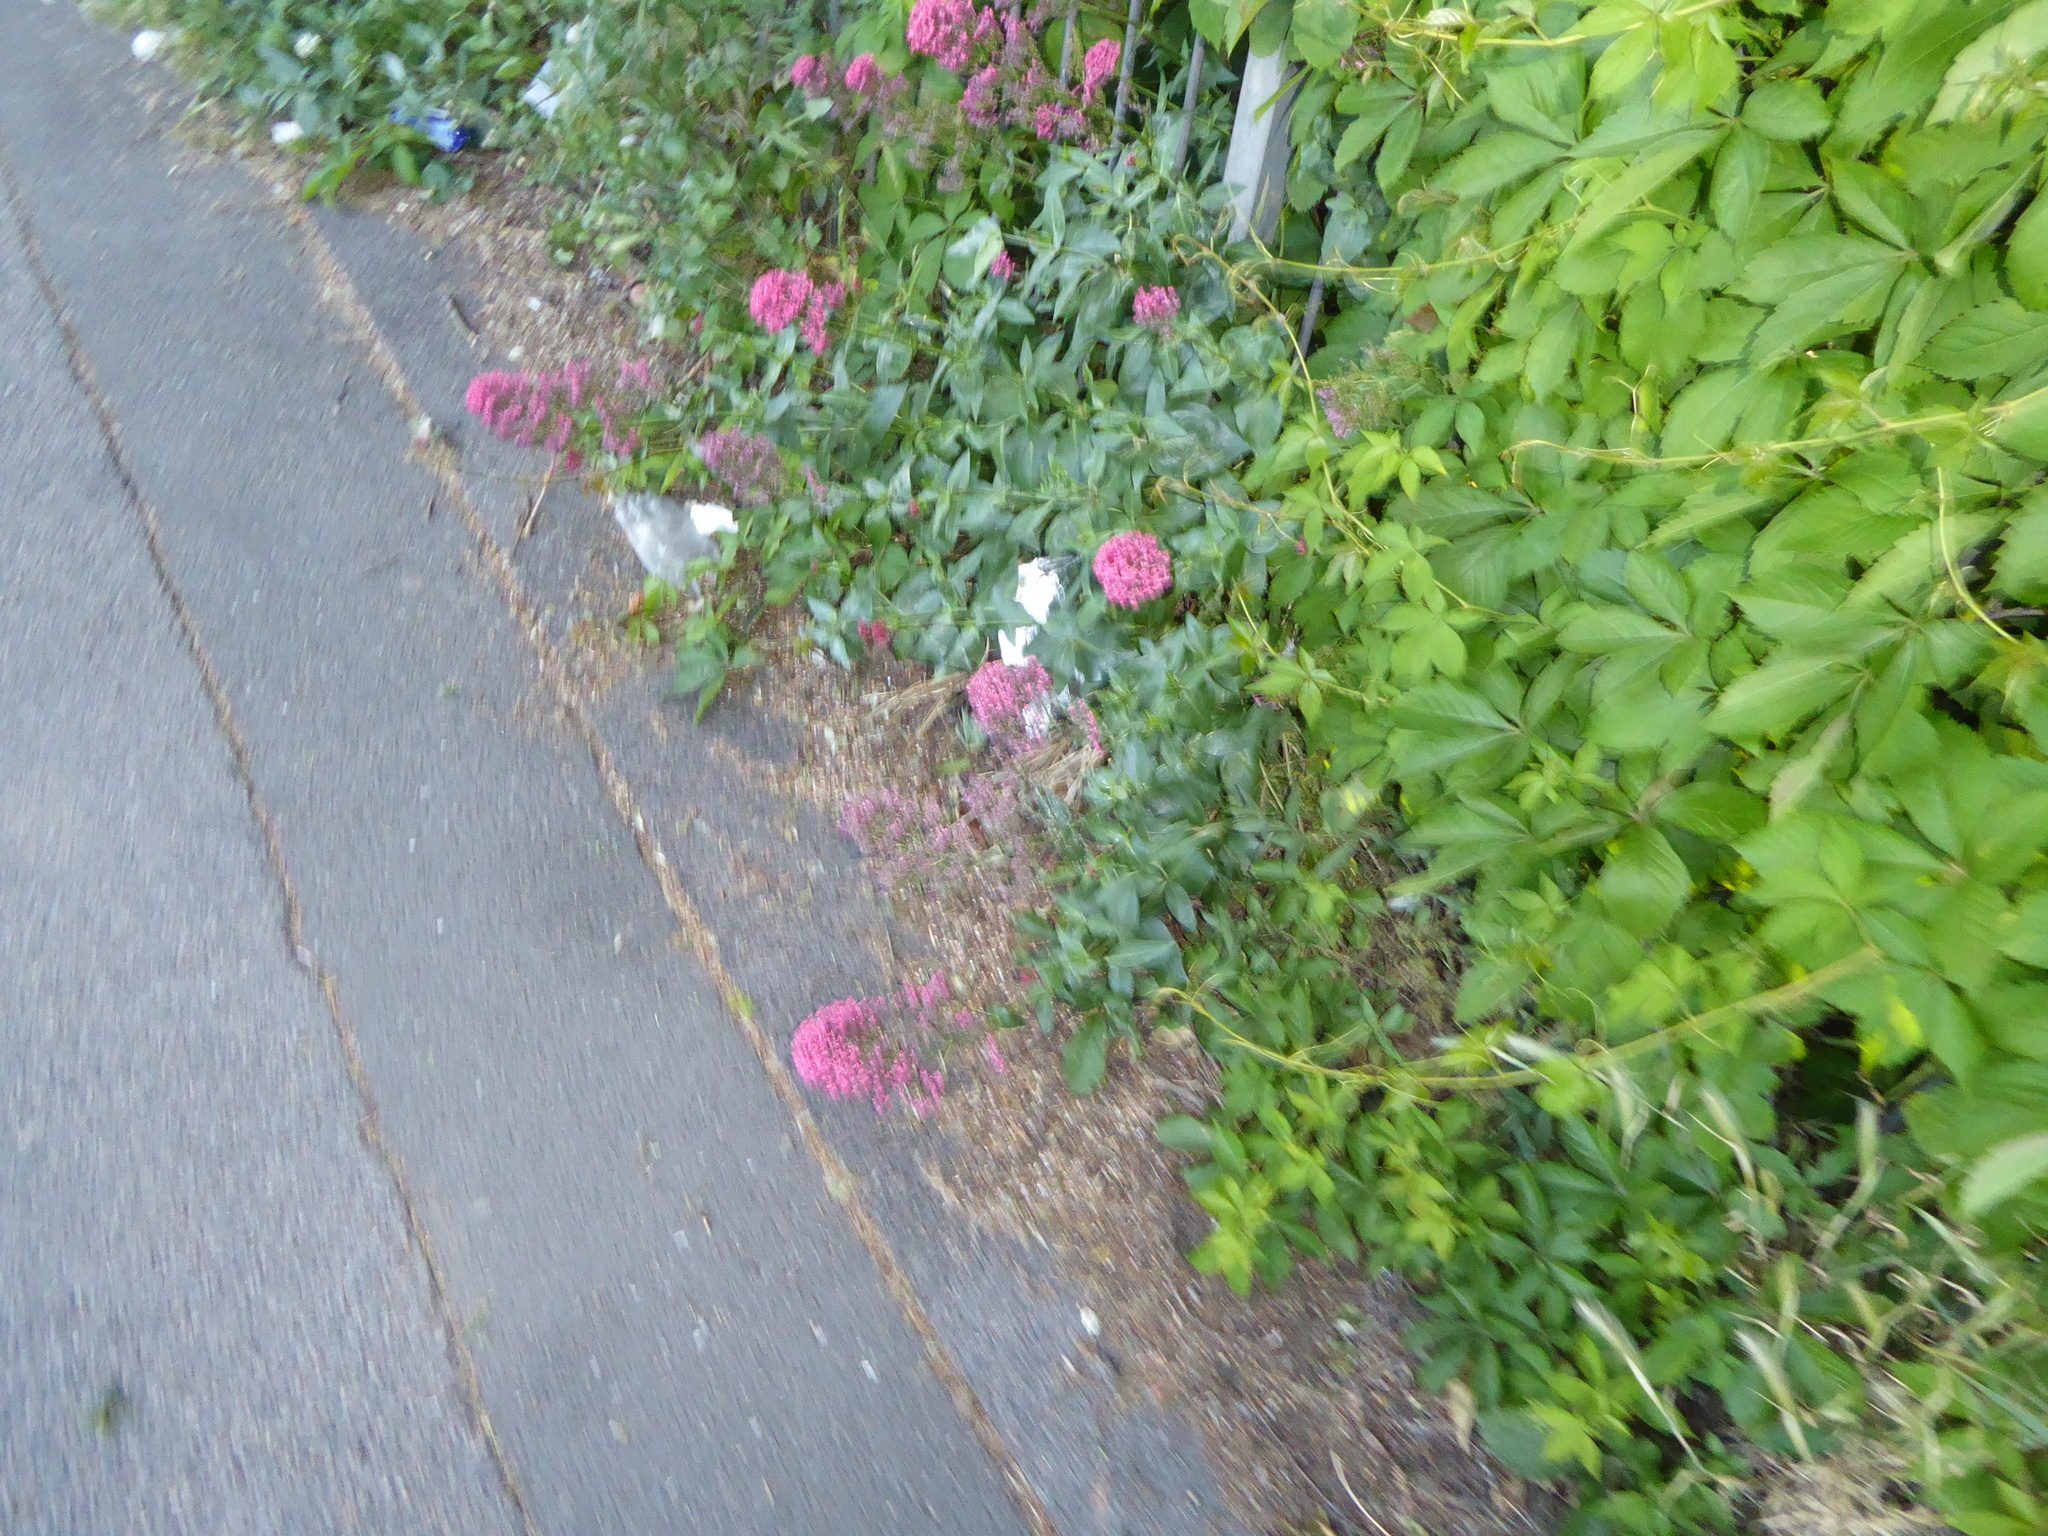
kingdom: Plantae
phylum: Tracheophyta
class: Magnoliopsida
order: Dipsacales
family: Caprifoliaceae
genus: Centranthus
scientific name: Centranthus ruber
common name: Red valerian
